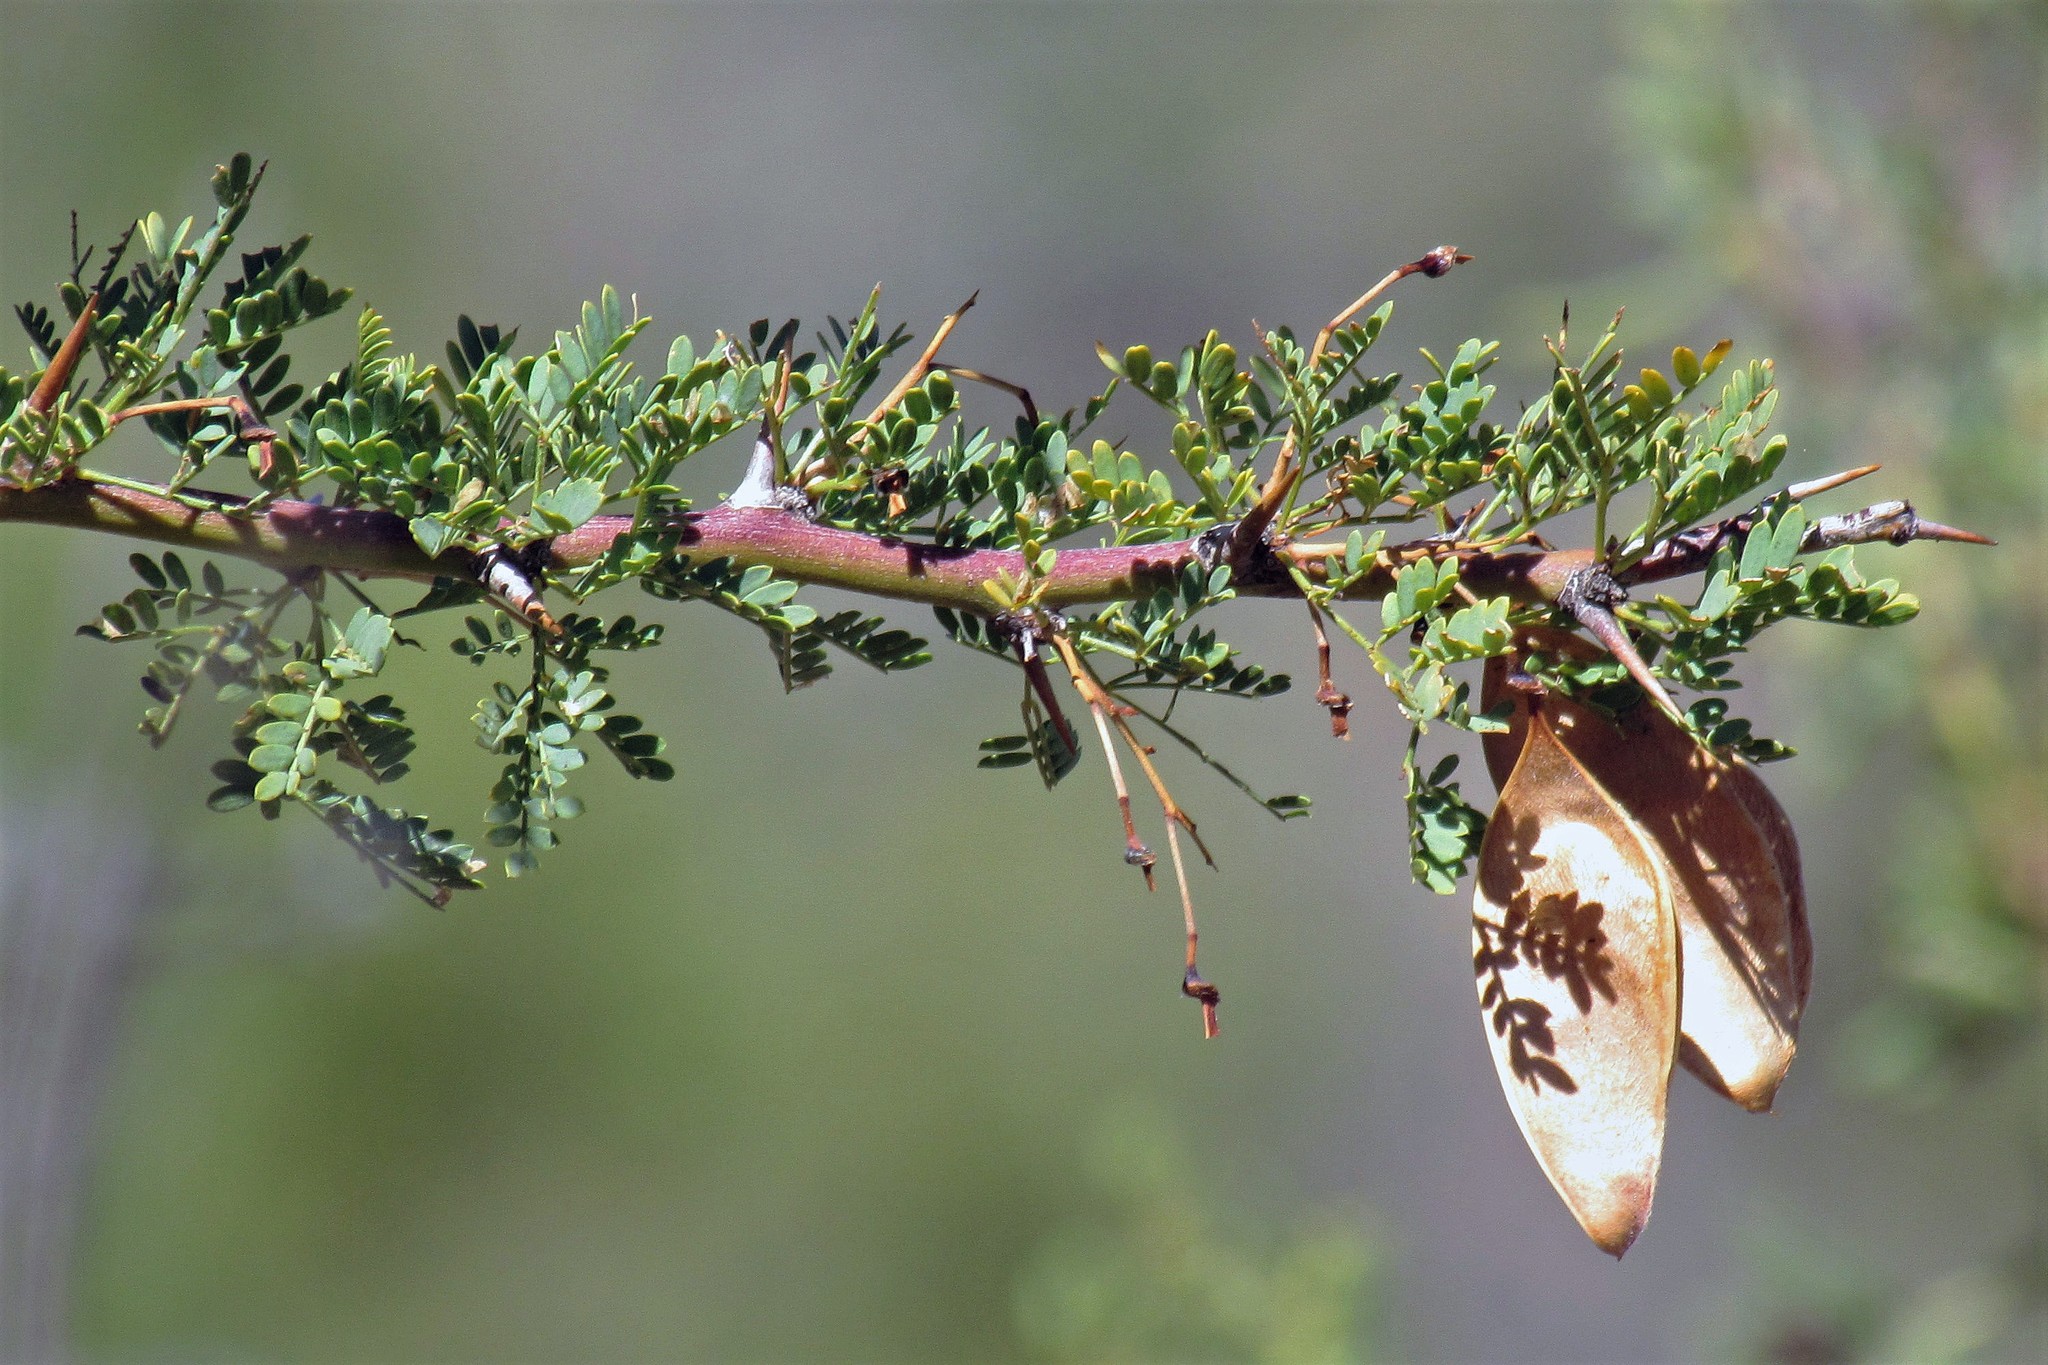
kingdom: Plantae
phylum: Tracheophyta
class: Magnoliopsida
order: Fabales
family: Fabaceae
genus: Parkinsonia
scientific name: Parkinsonia praecox
